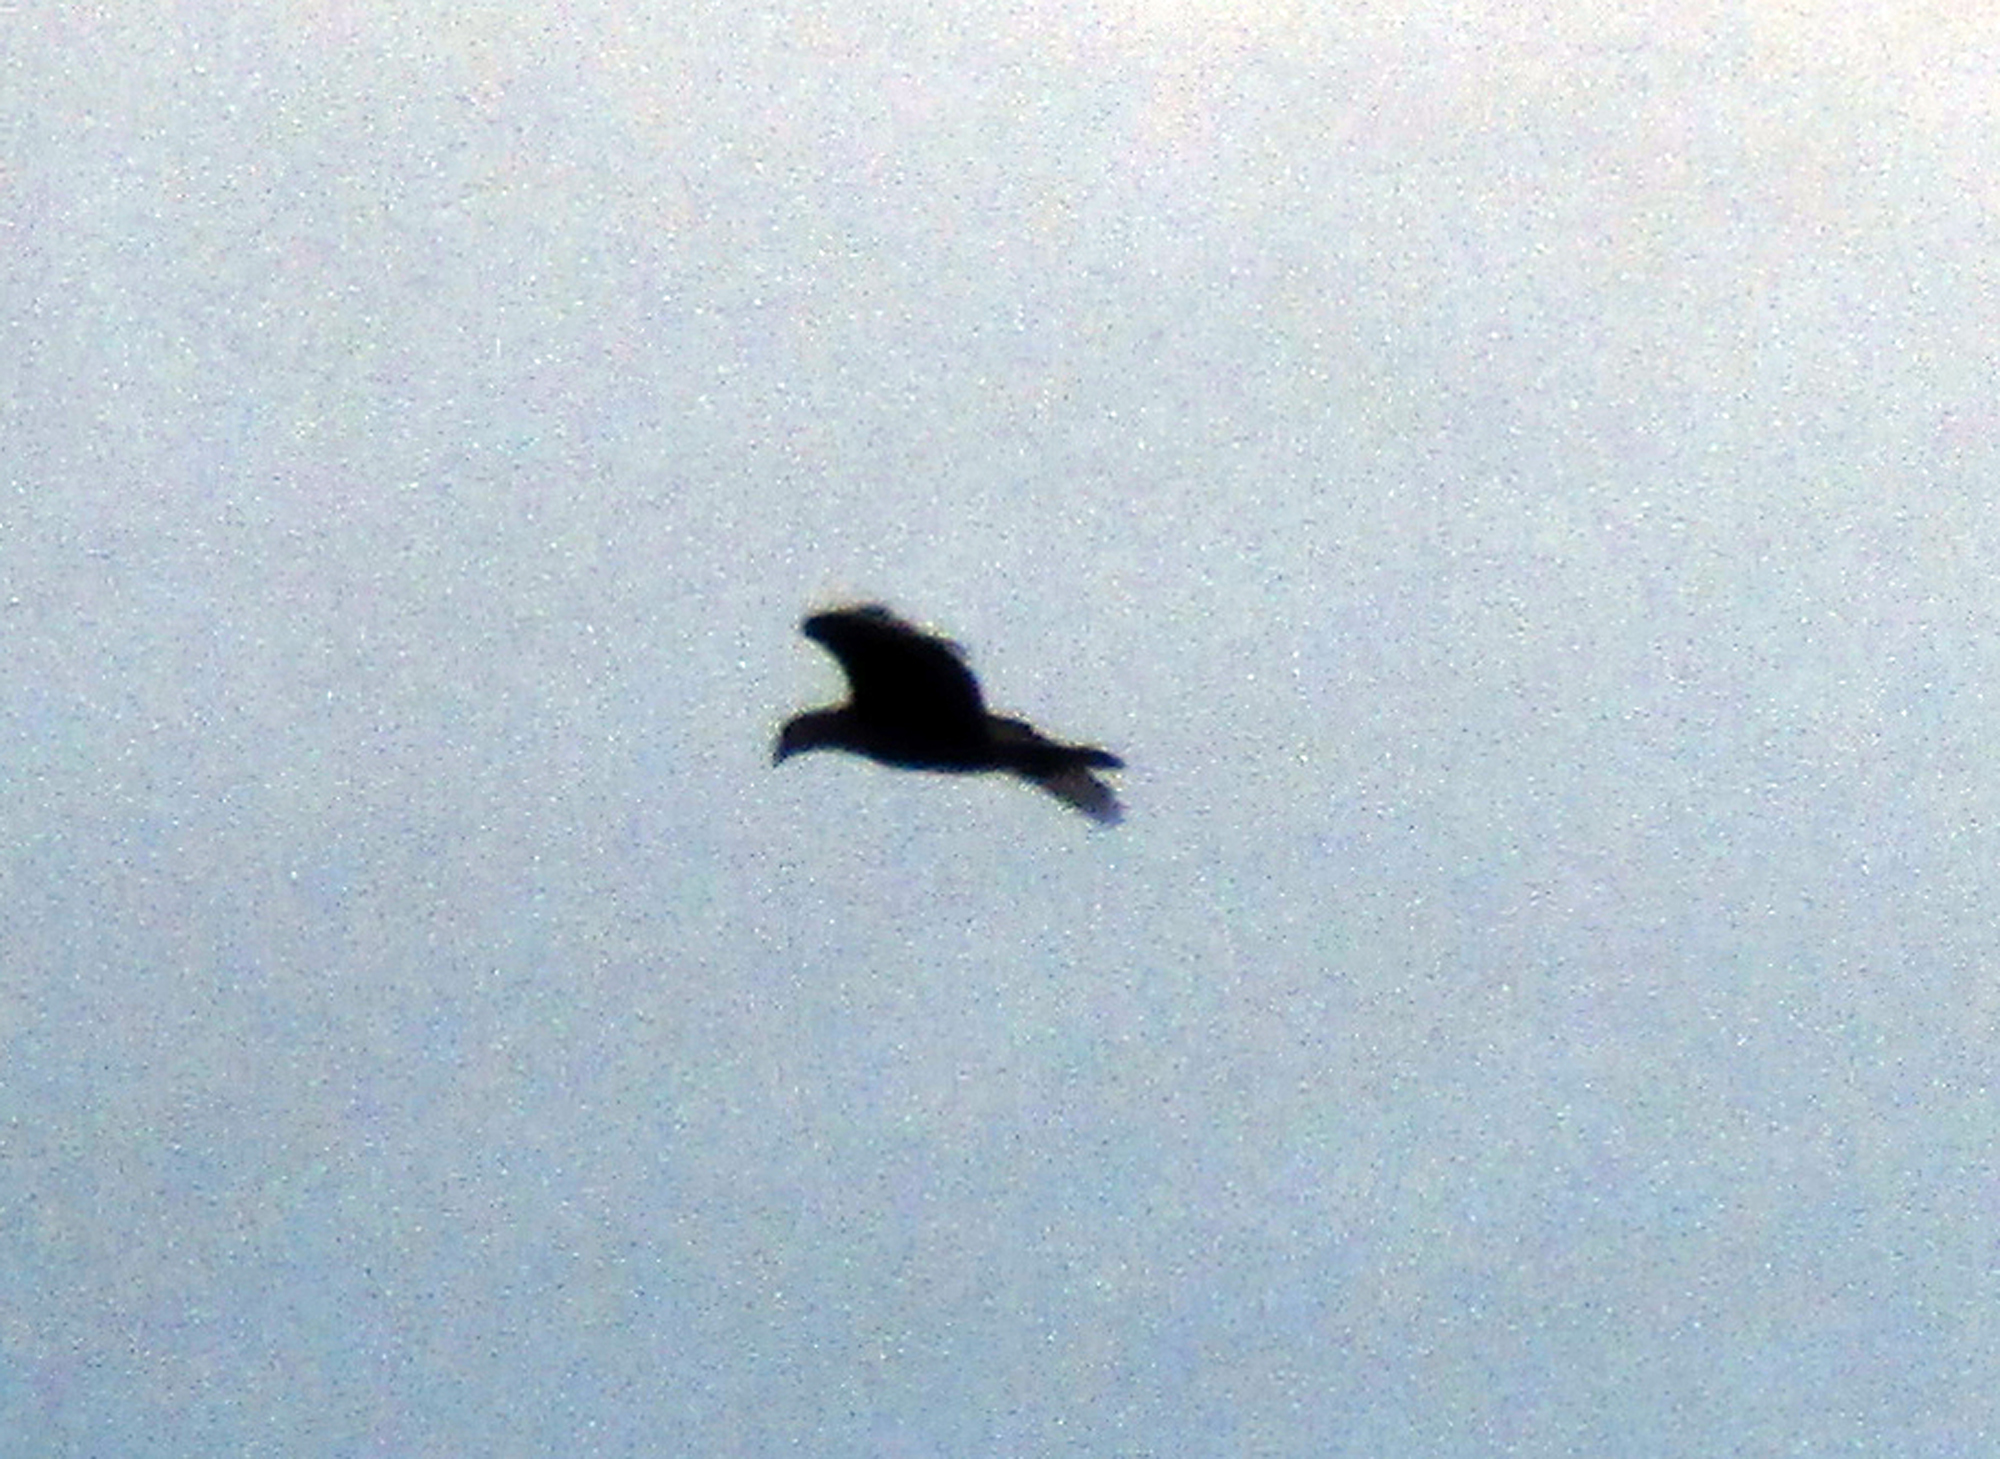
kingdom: Animalia
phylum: Chordata
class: Aves
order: Falconiformes
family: Falconidae
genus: Caracara
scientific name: Caracara plancus
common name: Southern caracara
